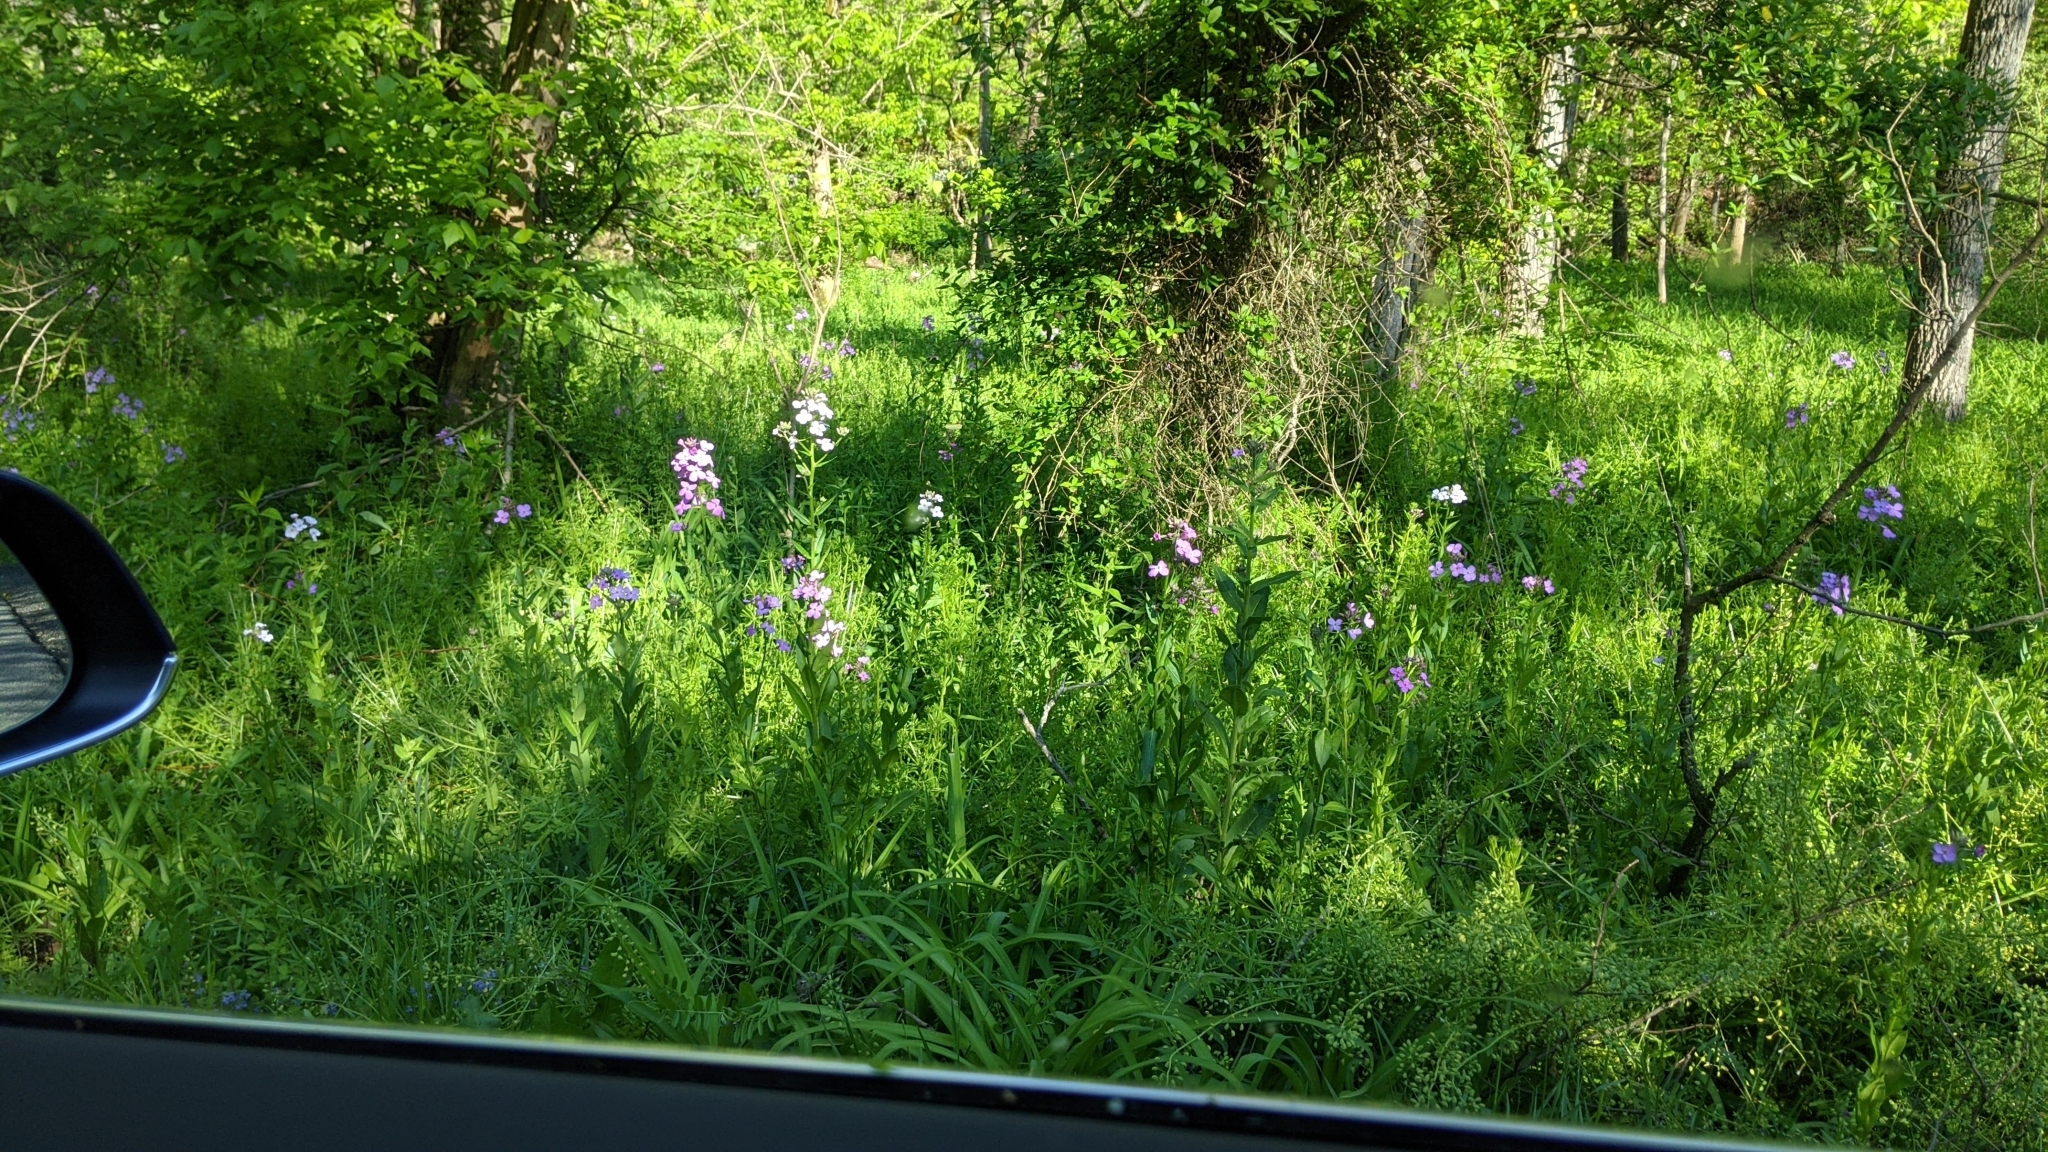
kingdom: Plantae
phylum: Tracheophyta
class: Magnoliopsida
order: Brassicales
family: Brassicaceae
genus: Hesperis
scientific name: Hesperis matronalis
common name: Dame's-violet
